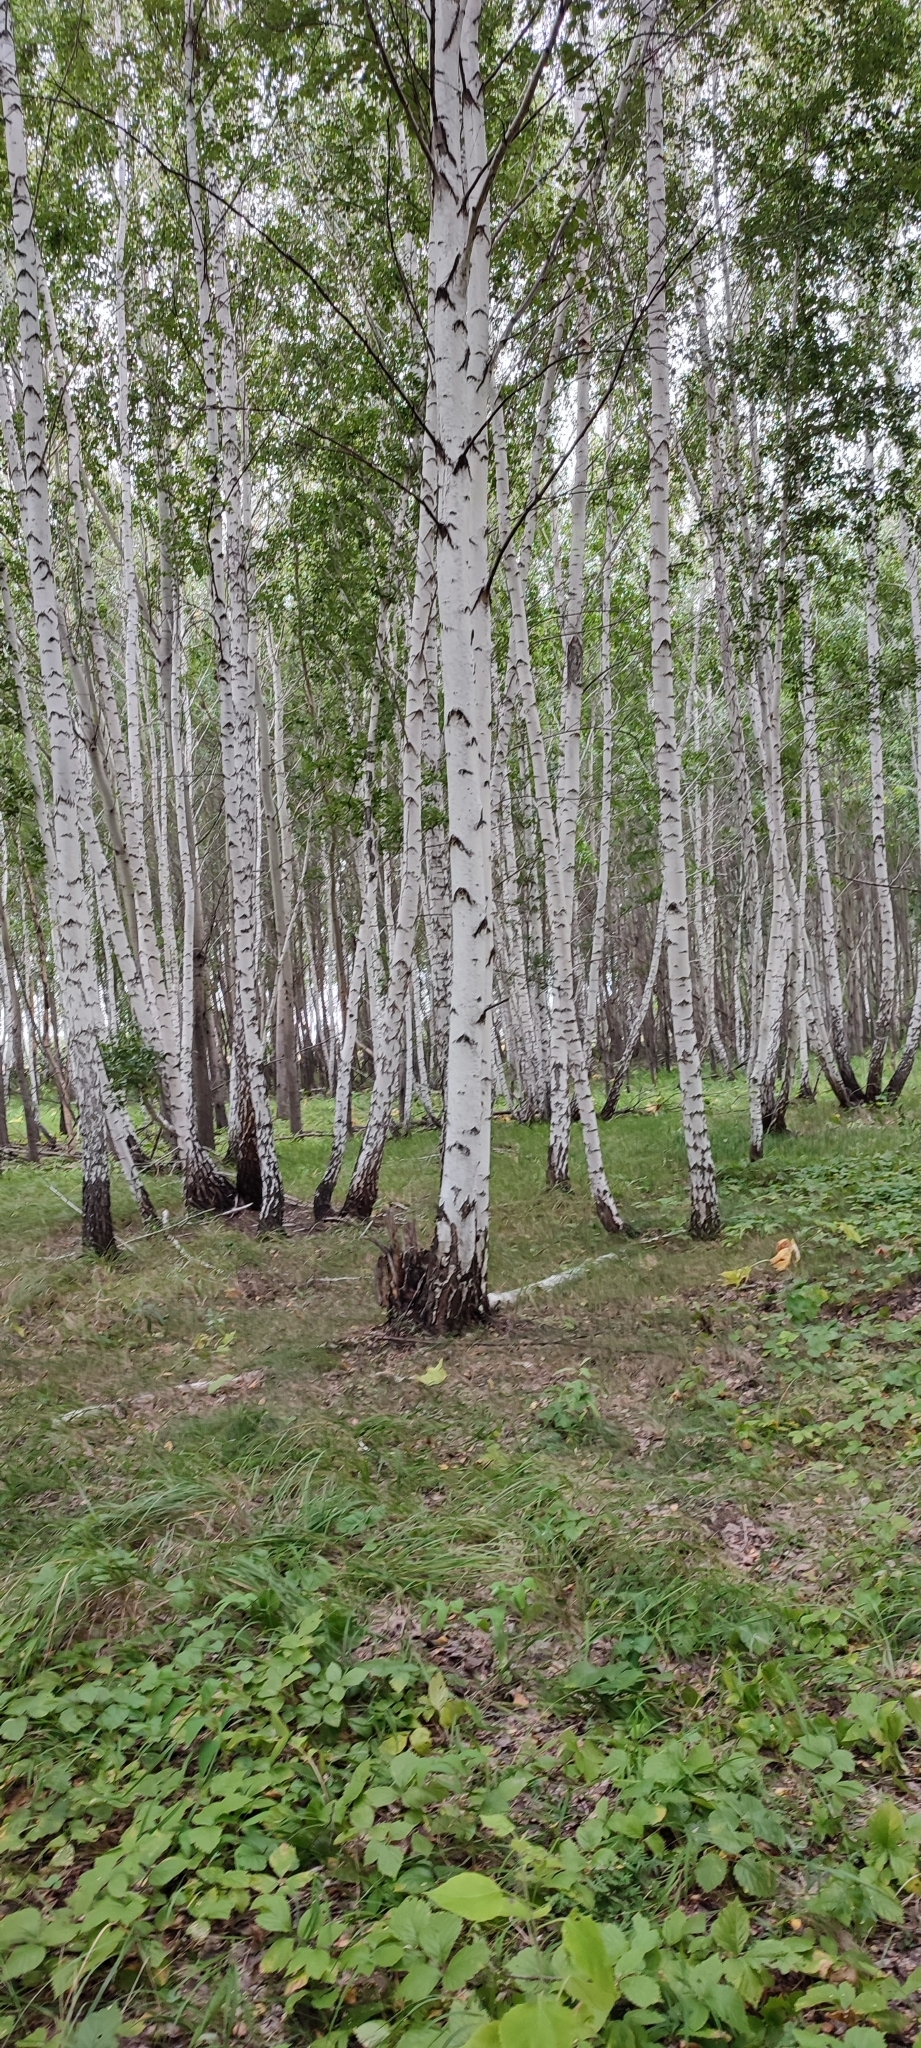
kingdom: Plantae
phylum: Tracheophyta
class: Magnoliopsida
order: Fagales
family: Betulaceae
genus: Betula
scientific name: Betula pendula
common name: Silver birch
